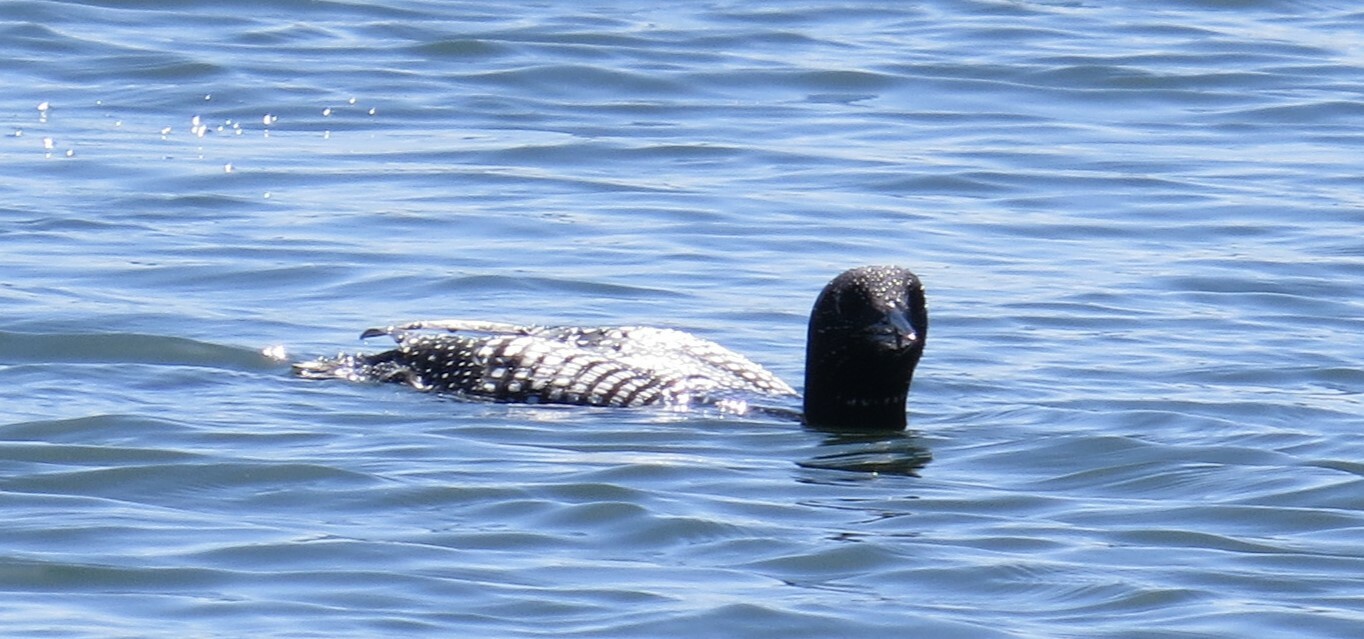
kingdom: Animalia
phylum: Chordata
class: Aves
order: Gaviiformes
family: Gaviidae
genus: Gavia
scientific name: Gavia immer
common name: Common loon
